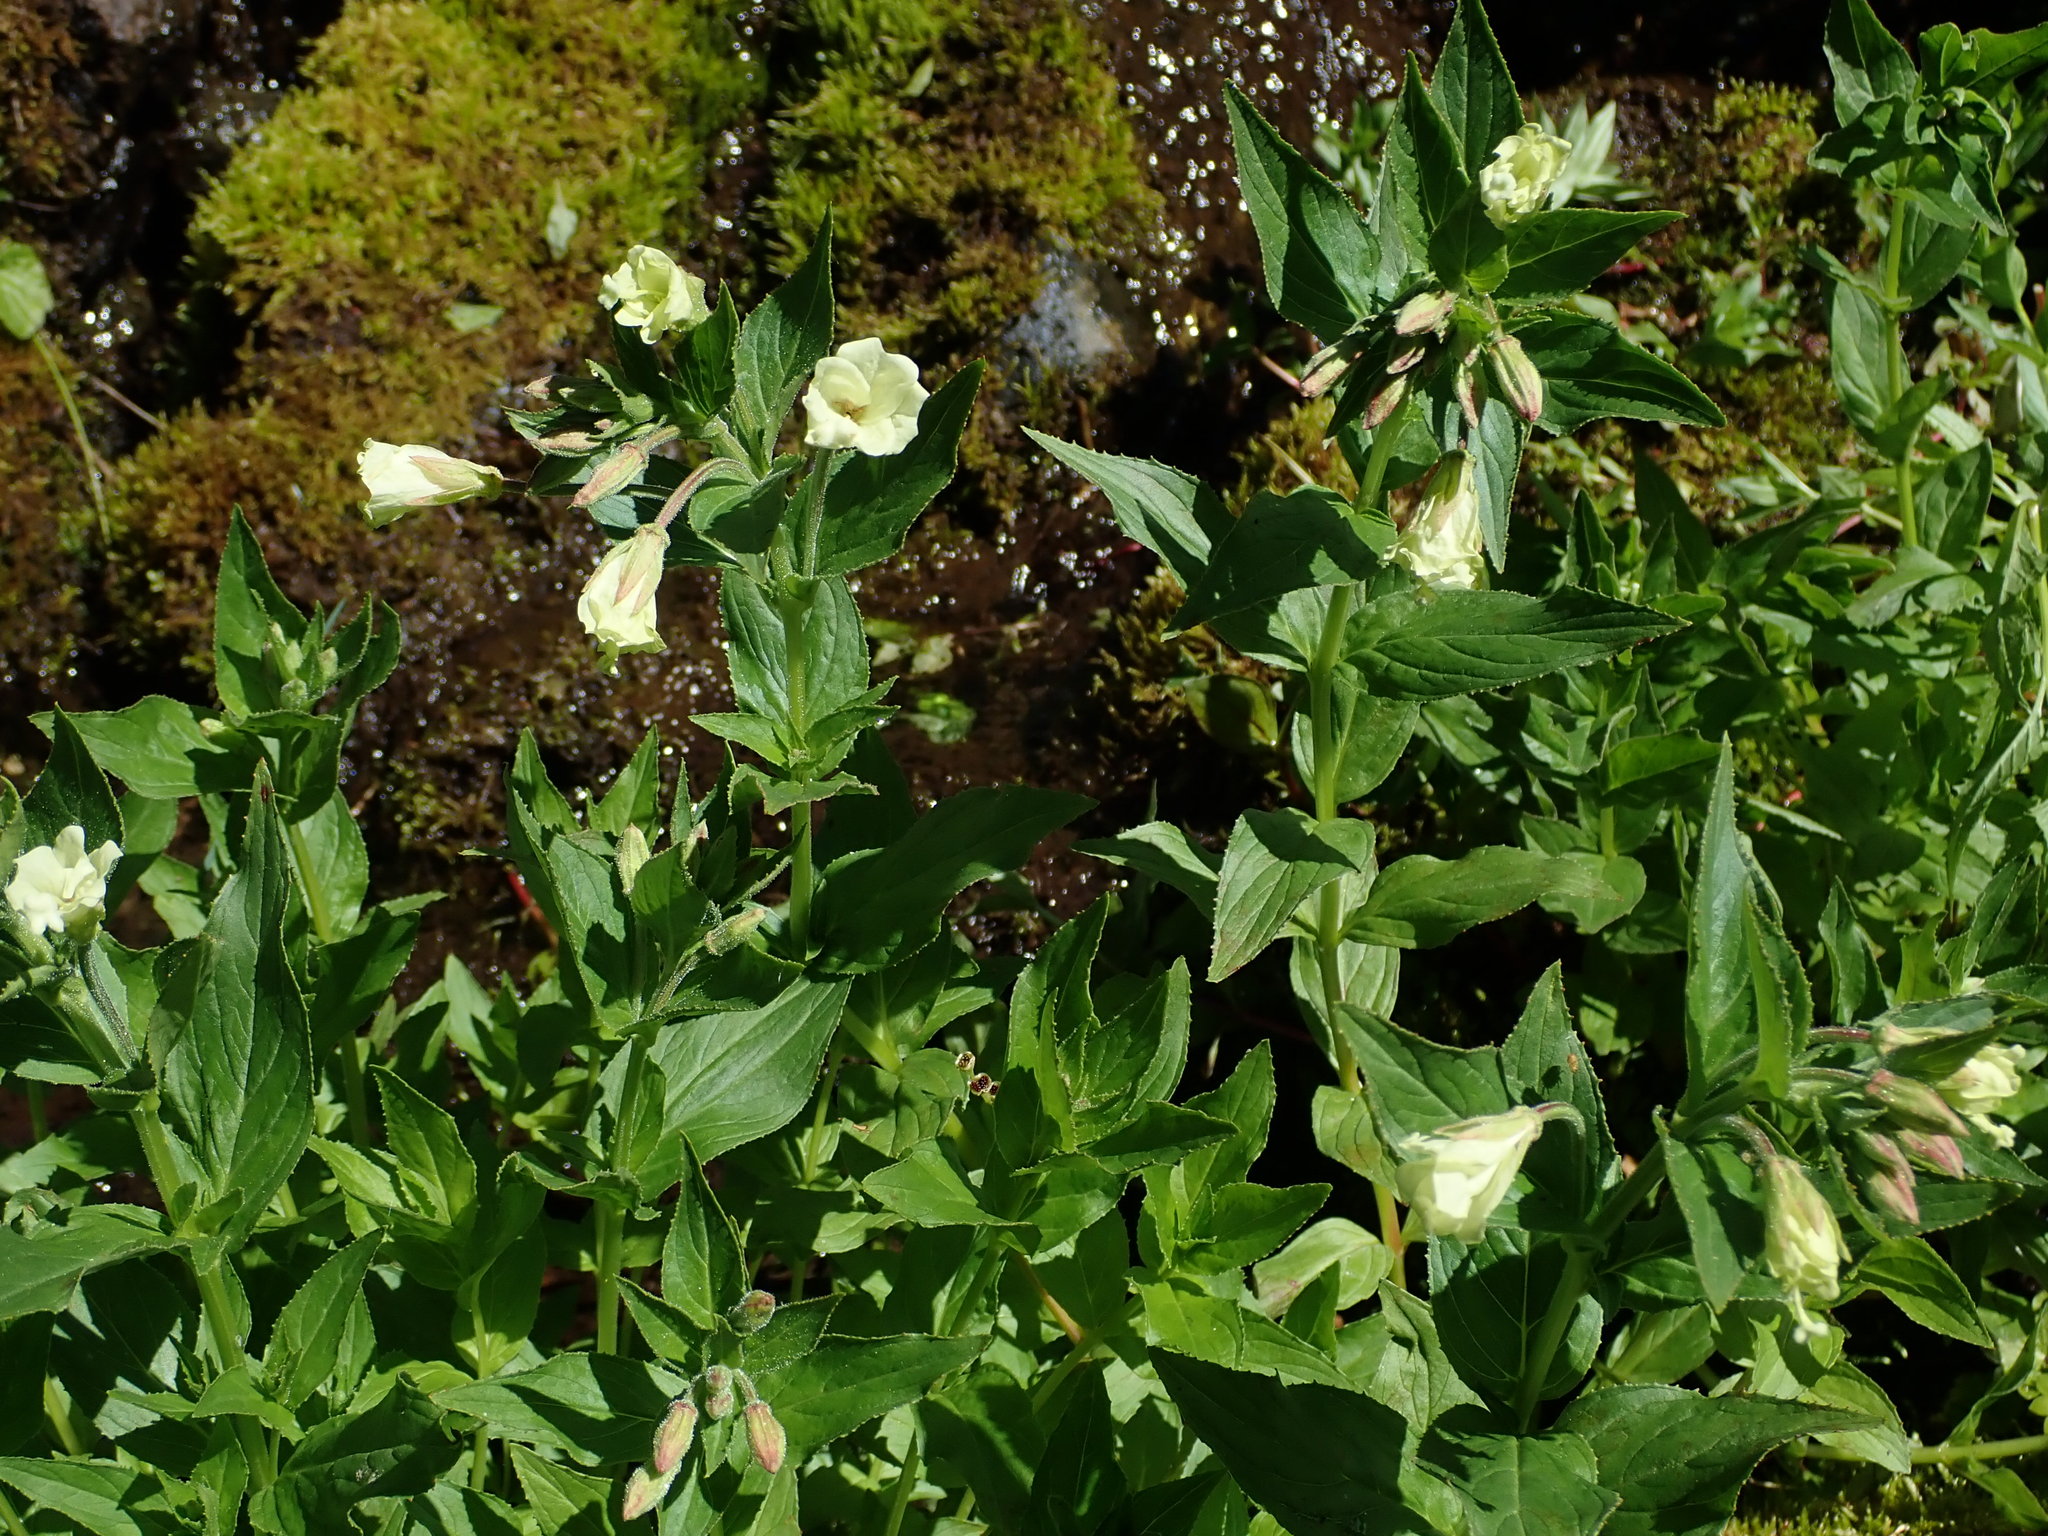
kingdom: Plantae
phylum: Tracheophyta
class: Magnoliopsida
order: Myrtales
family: Onagraceae
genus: Epilobium
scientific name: Epilobium luteum
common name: Yellow willowherb
